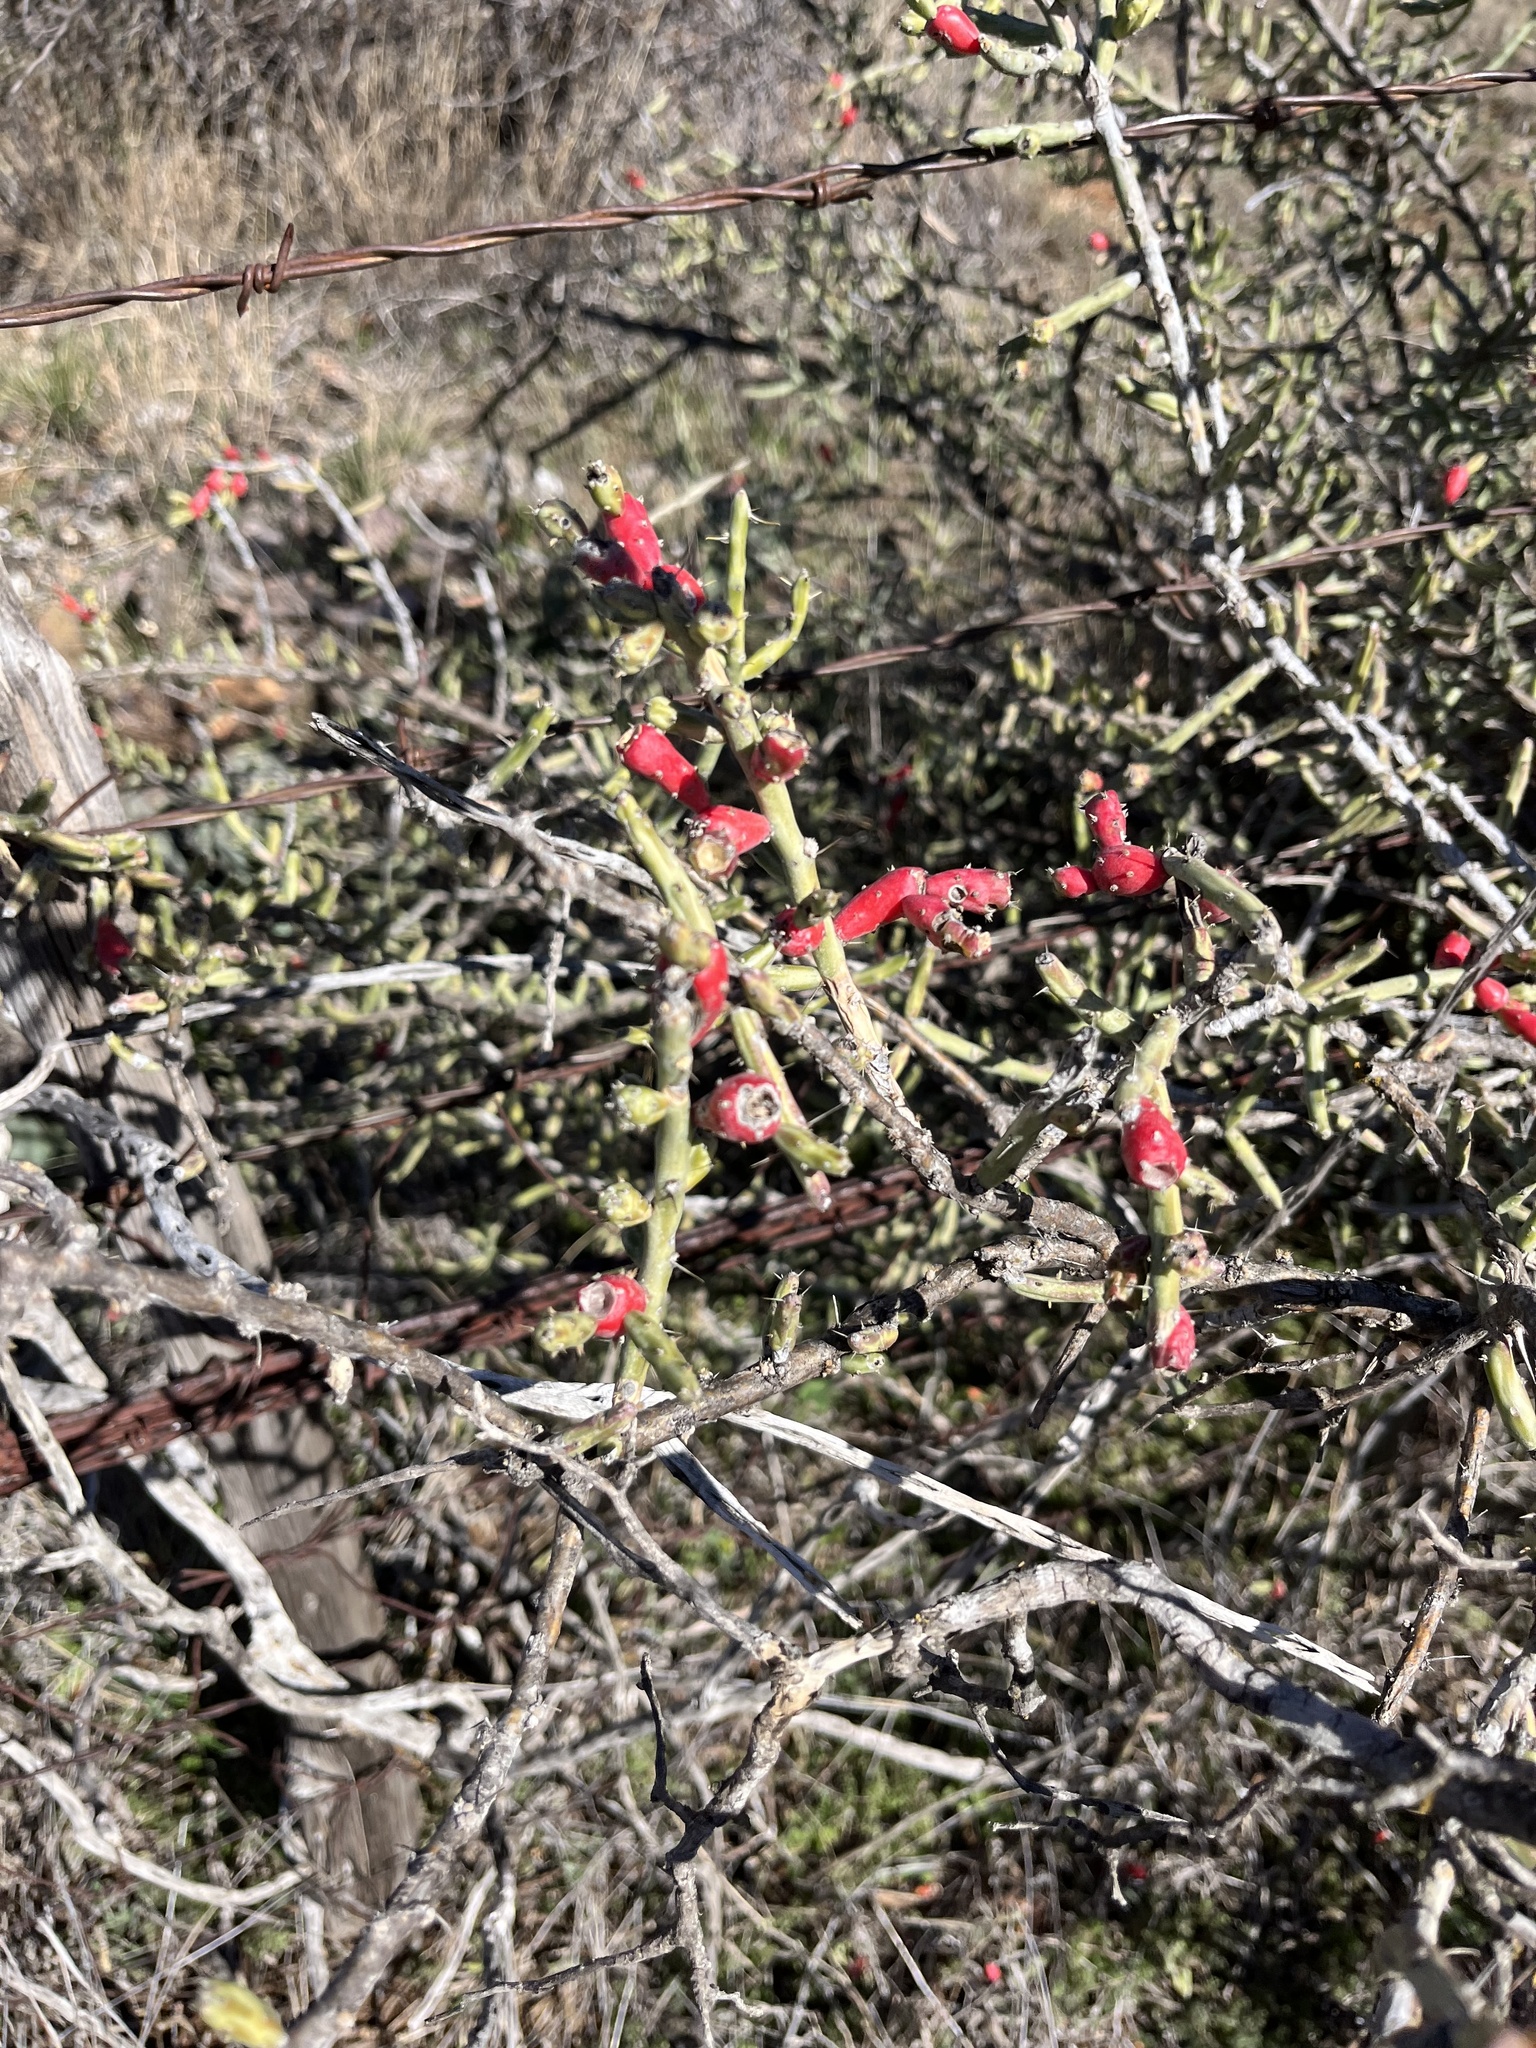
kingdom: Plantae
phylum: Tracheophyta
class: Magnoliopsida
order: Caryophyllales
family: Cactaceae
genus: Cylindropuntia
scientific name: Cylindropuntia leptocaulis
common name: Christmas cactus
